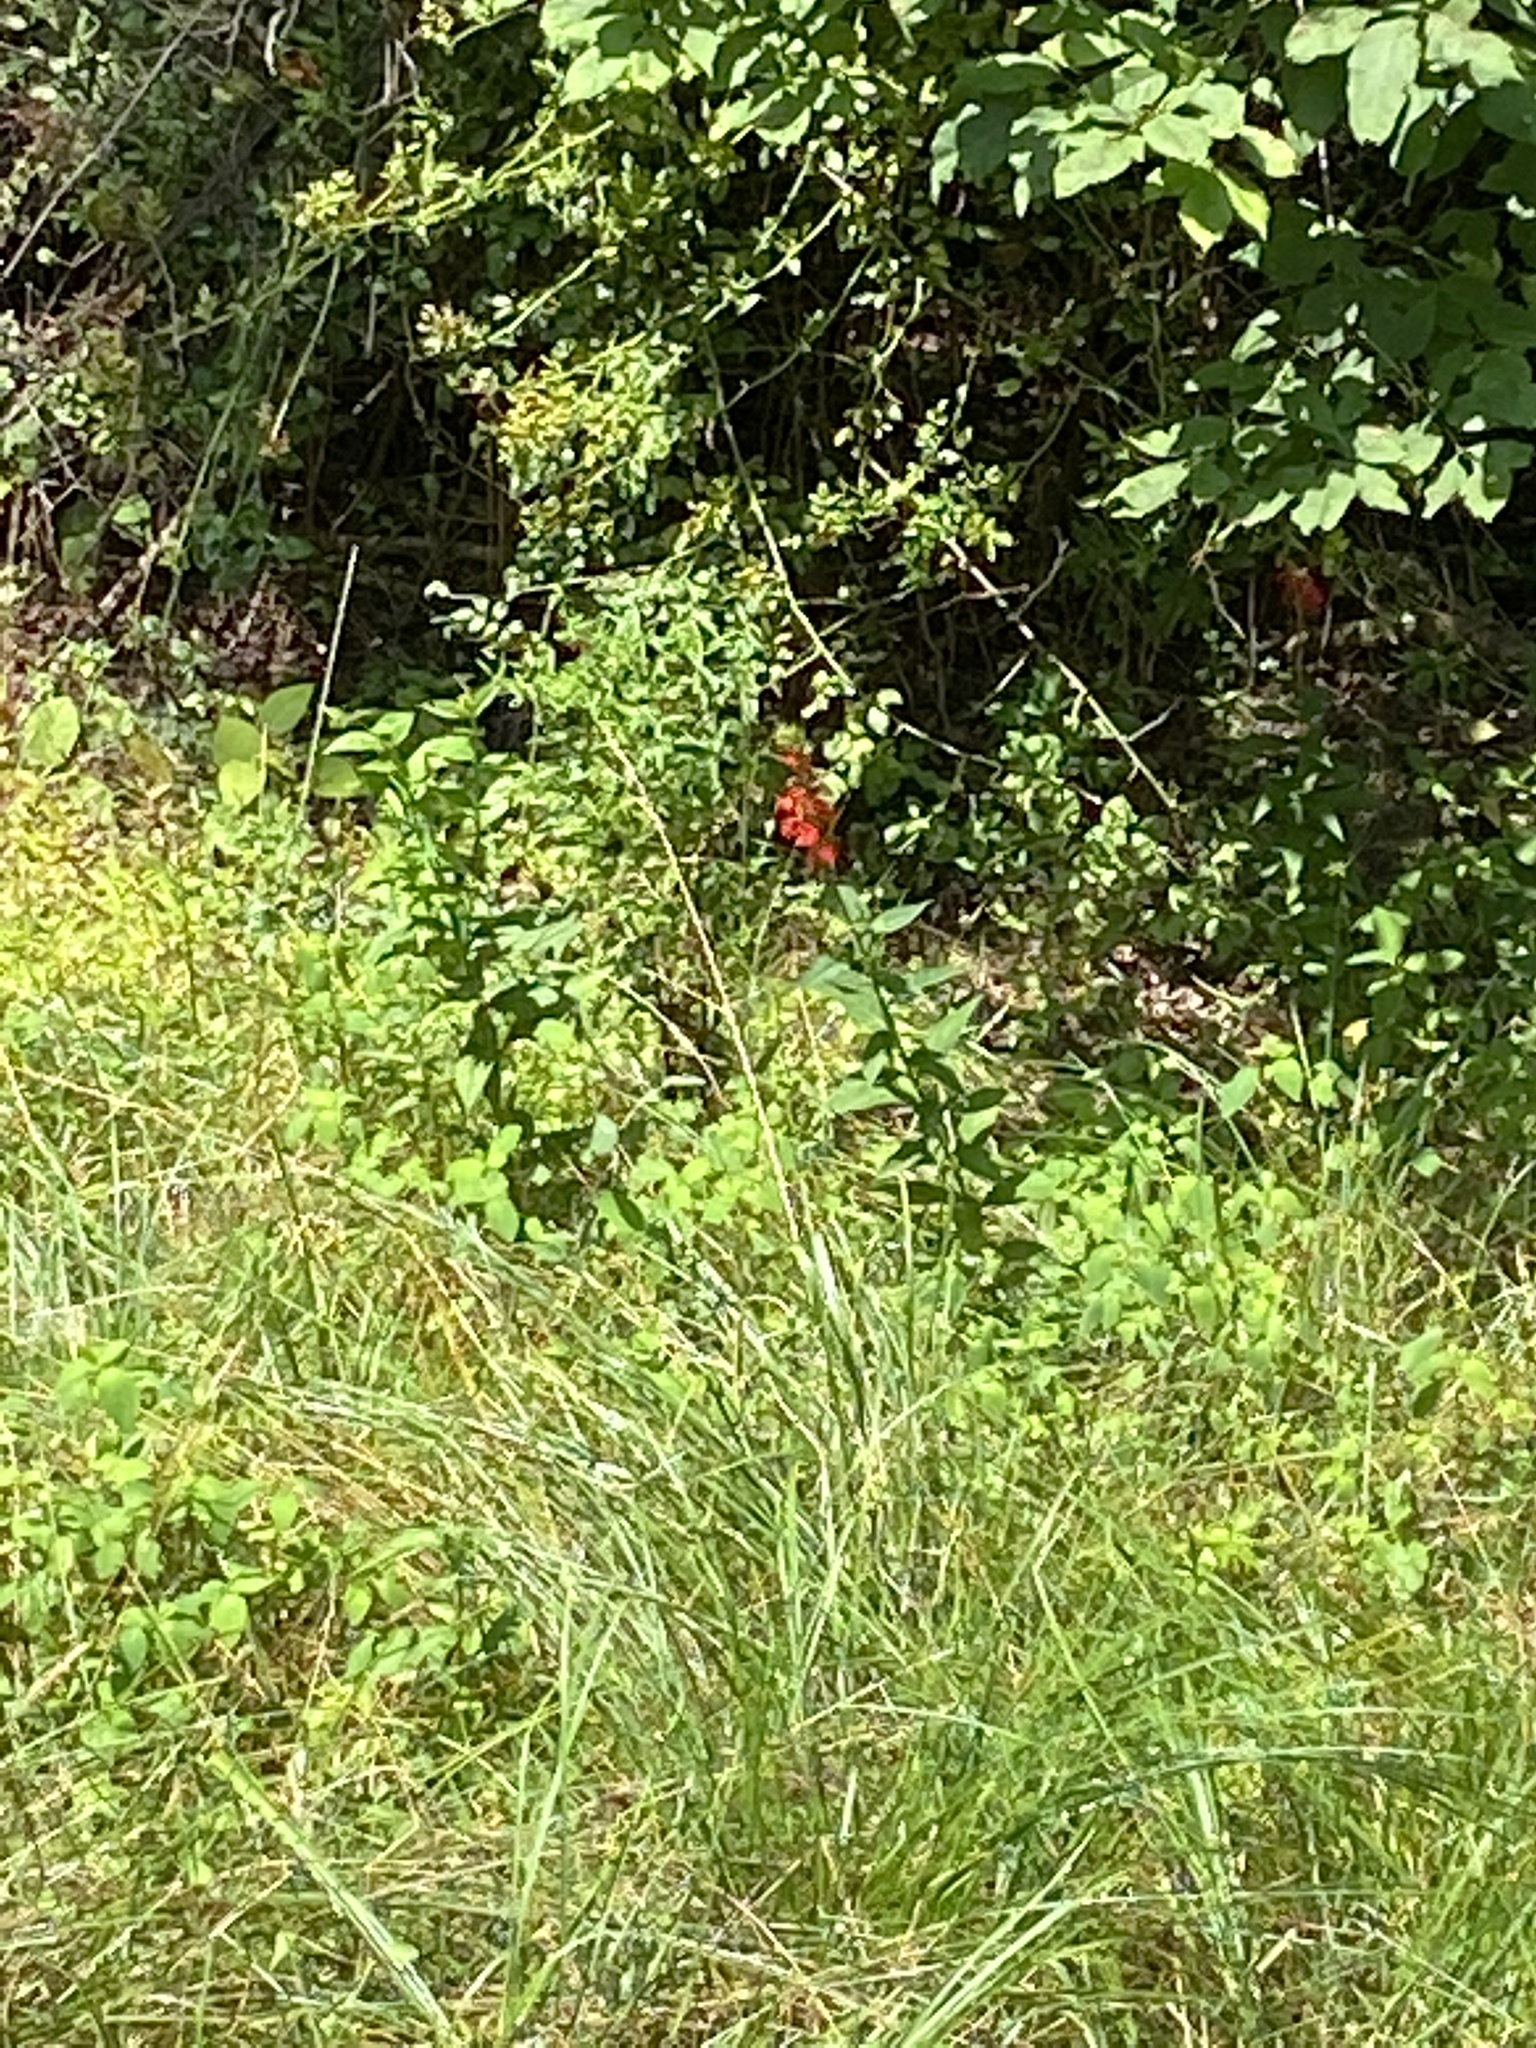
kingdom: Plantae
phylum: Tracheophyta
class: Magnoliopsida
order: Asterales
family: Campanulaceae
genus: Lobelia
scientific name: Lobelia cardinalis
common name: Cardinal flower
